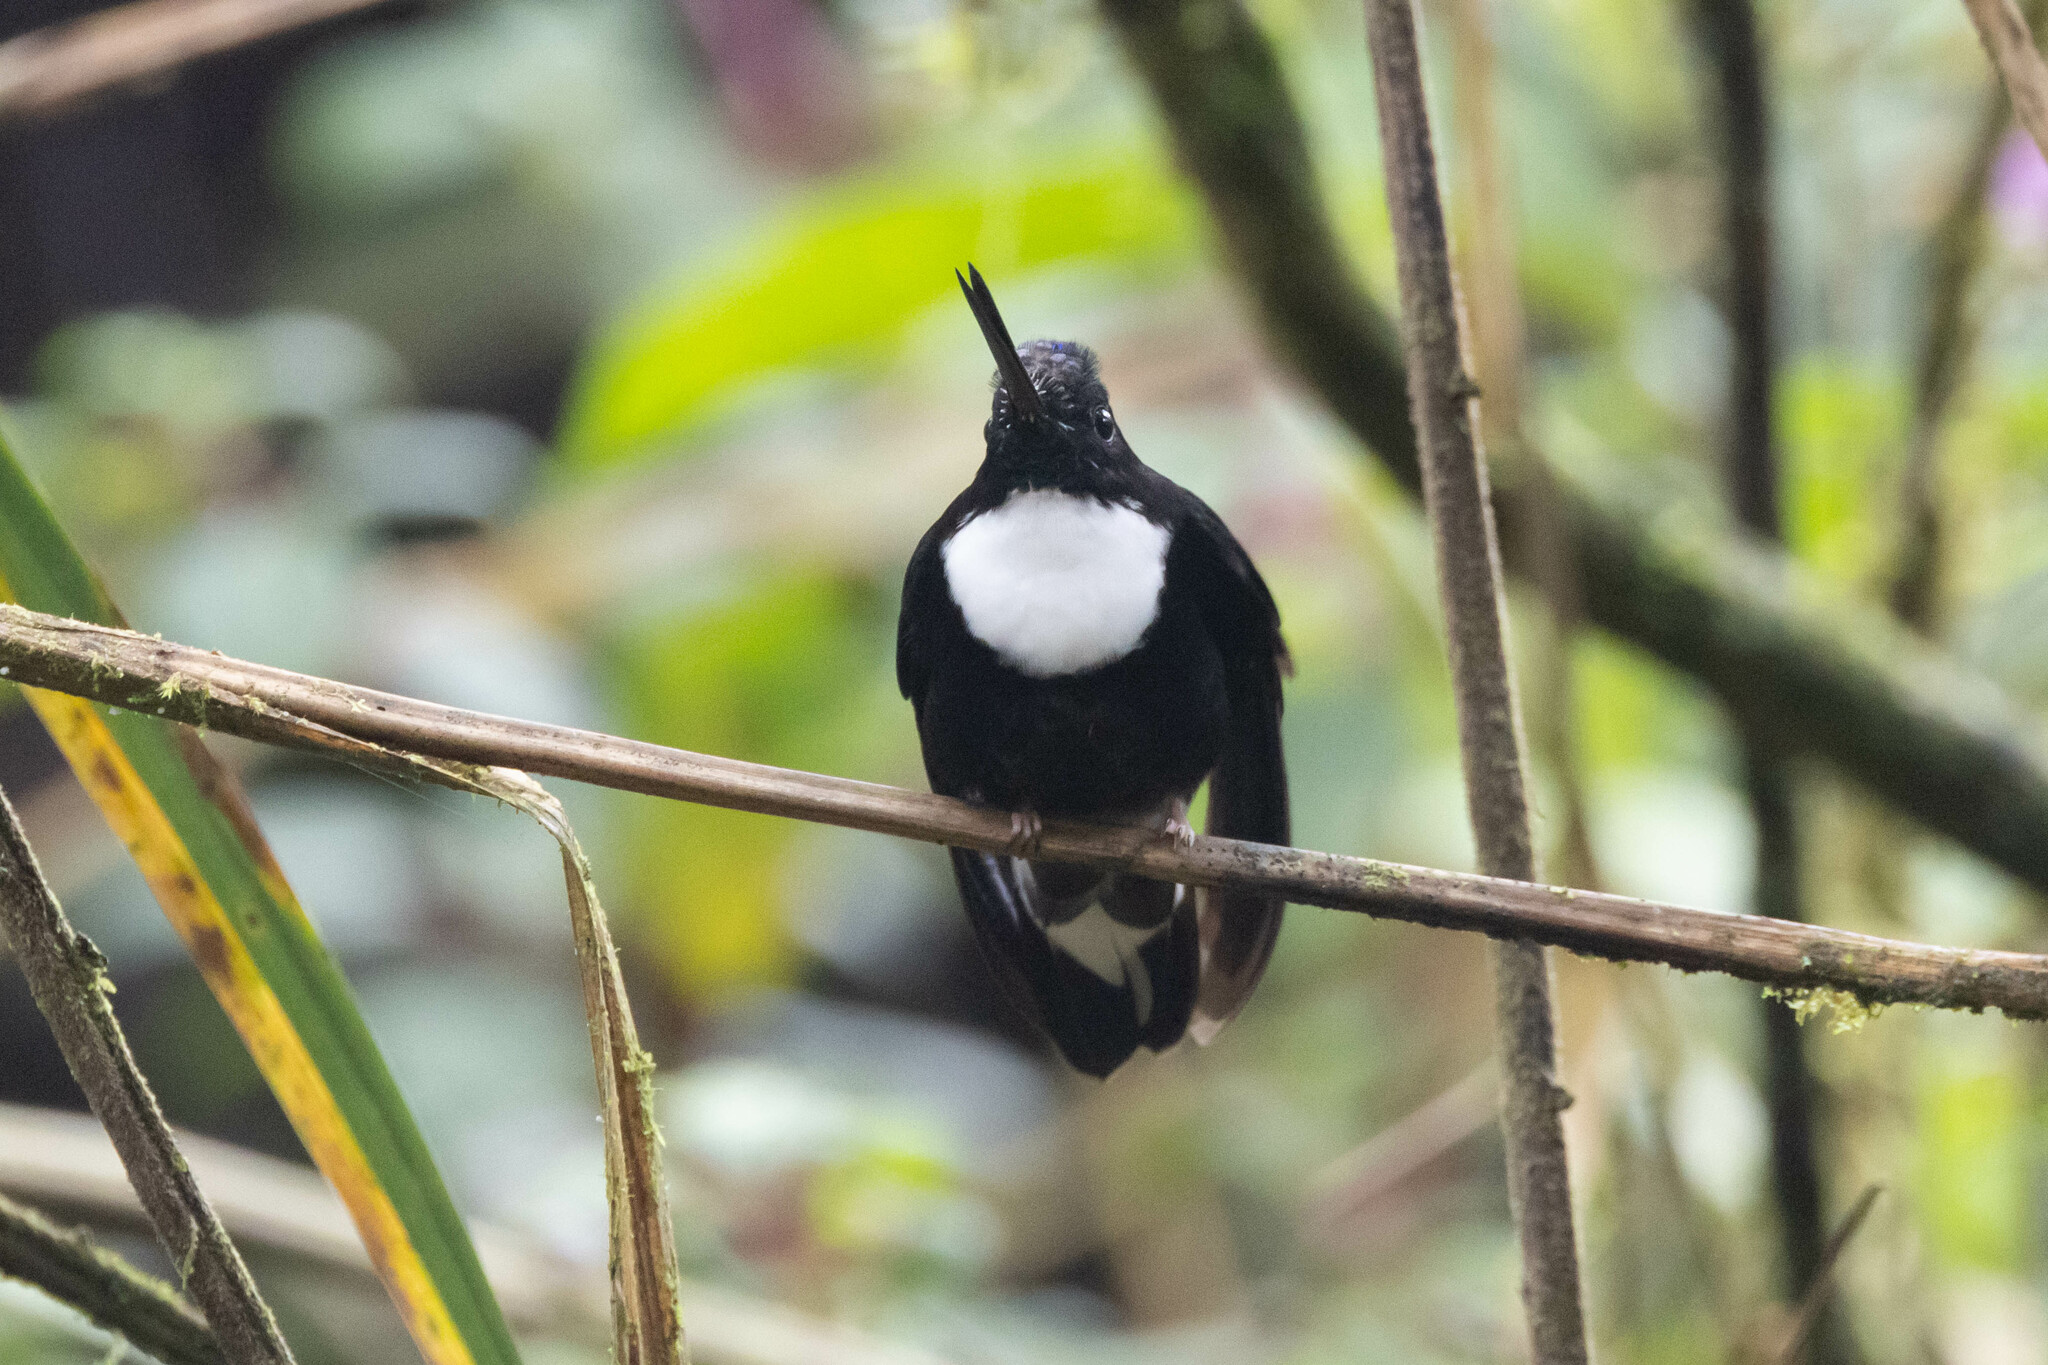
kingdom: Animalia
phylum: Chordata
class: Aves
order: Apodiformes
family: Trochilidae
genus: Coeligena
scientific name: Coeligena torquata
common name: Collared inca
